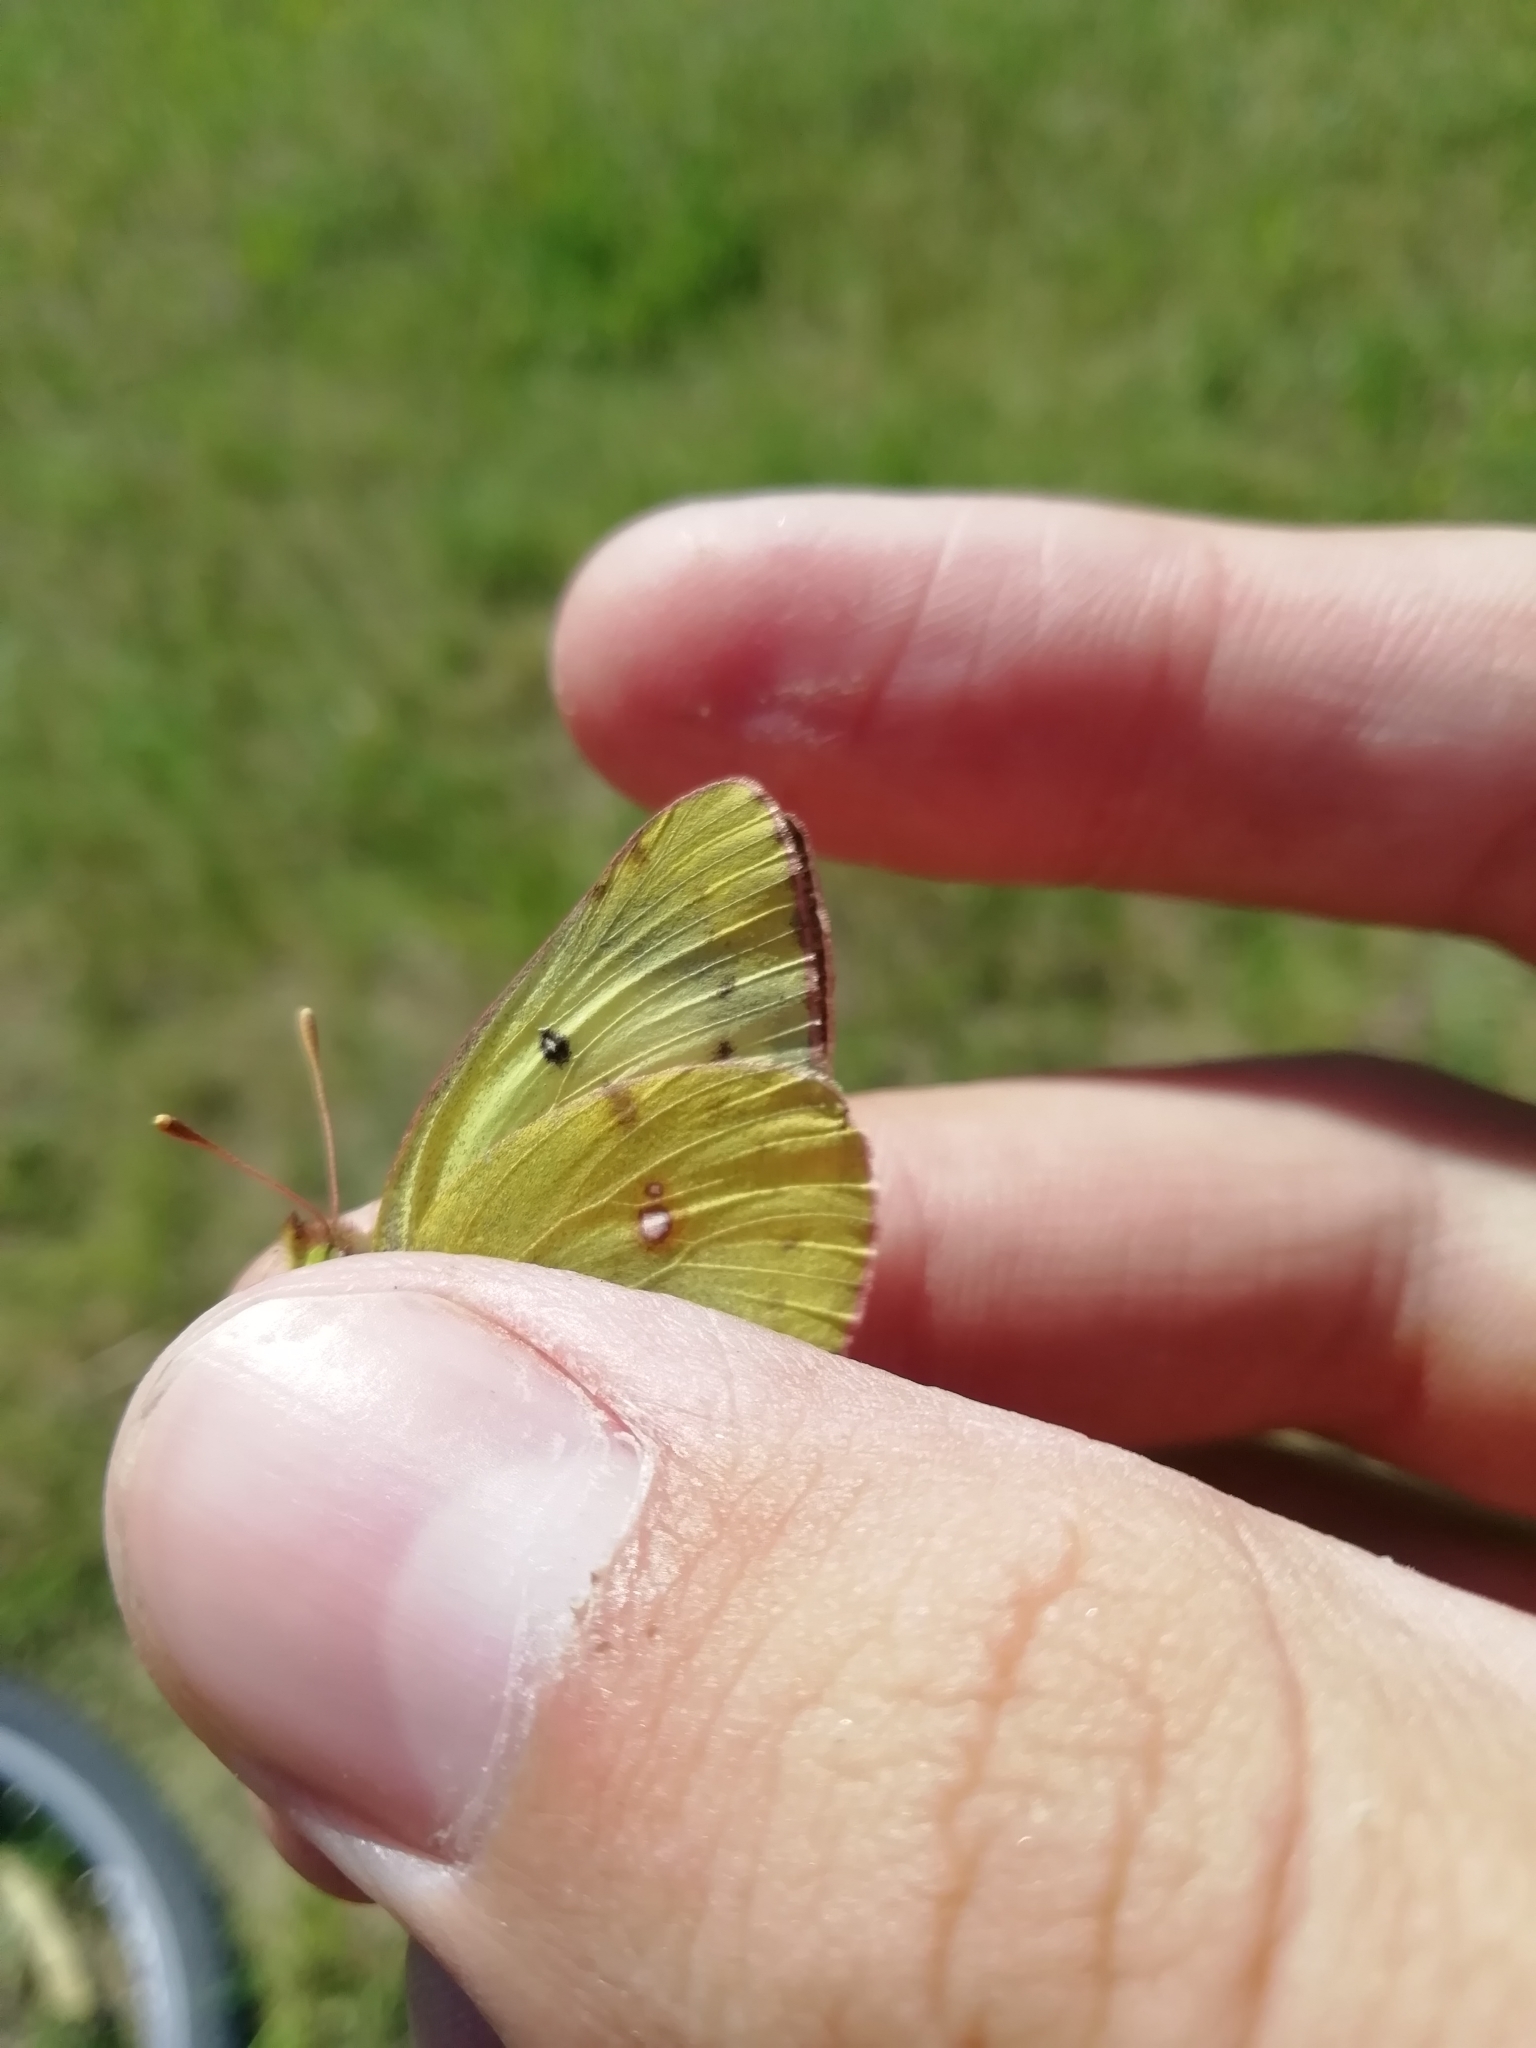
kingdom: Animalia
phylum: Arthropoda
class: Insecta
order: Lepidoptera
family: Pieridae
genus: Colias
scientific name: Colias hyale
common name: Pale clouded yellow
